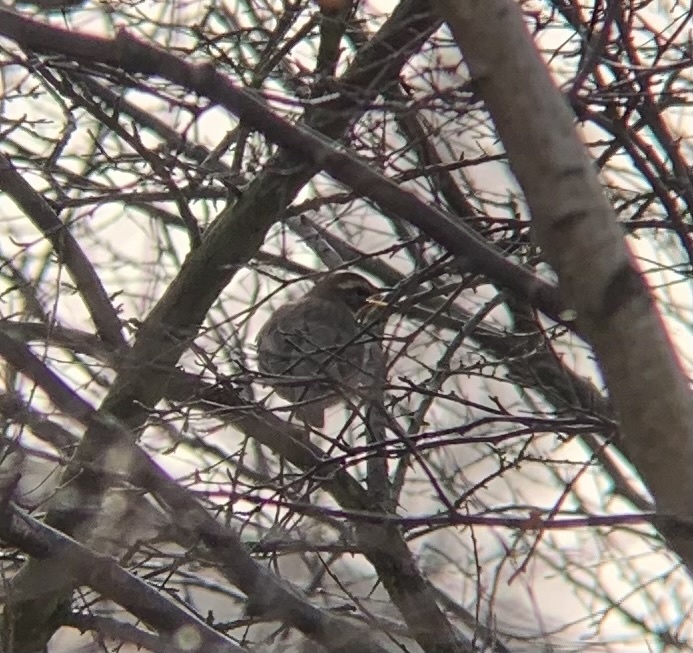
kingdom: Animalia
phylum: Chordata
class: Aves
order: Passeriformes
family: Turdidae
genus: Turdus
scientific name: Turdus iliacus
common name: Redwing
